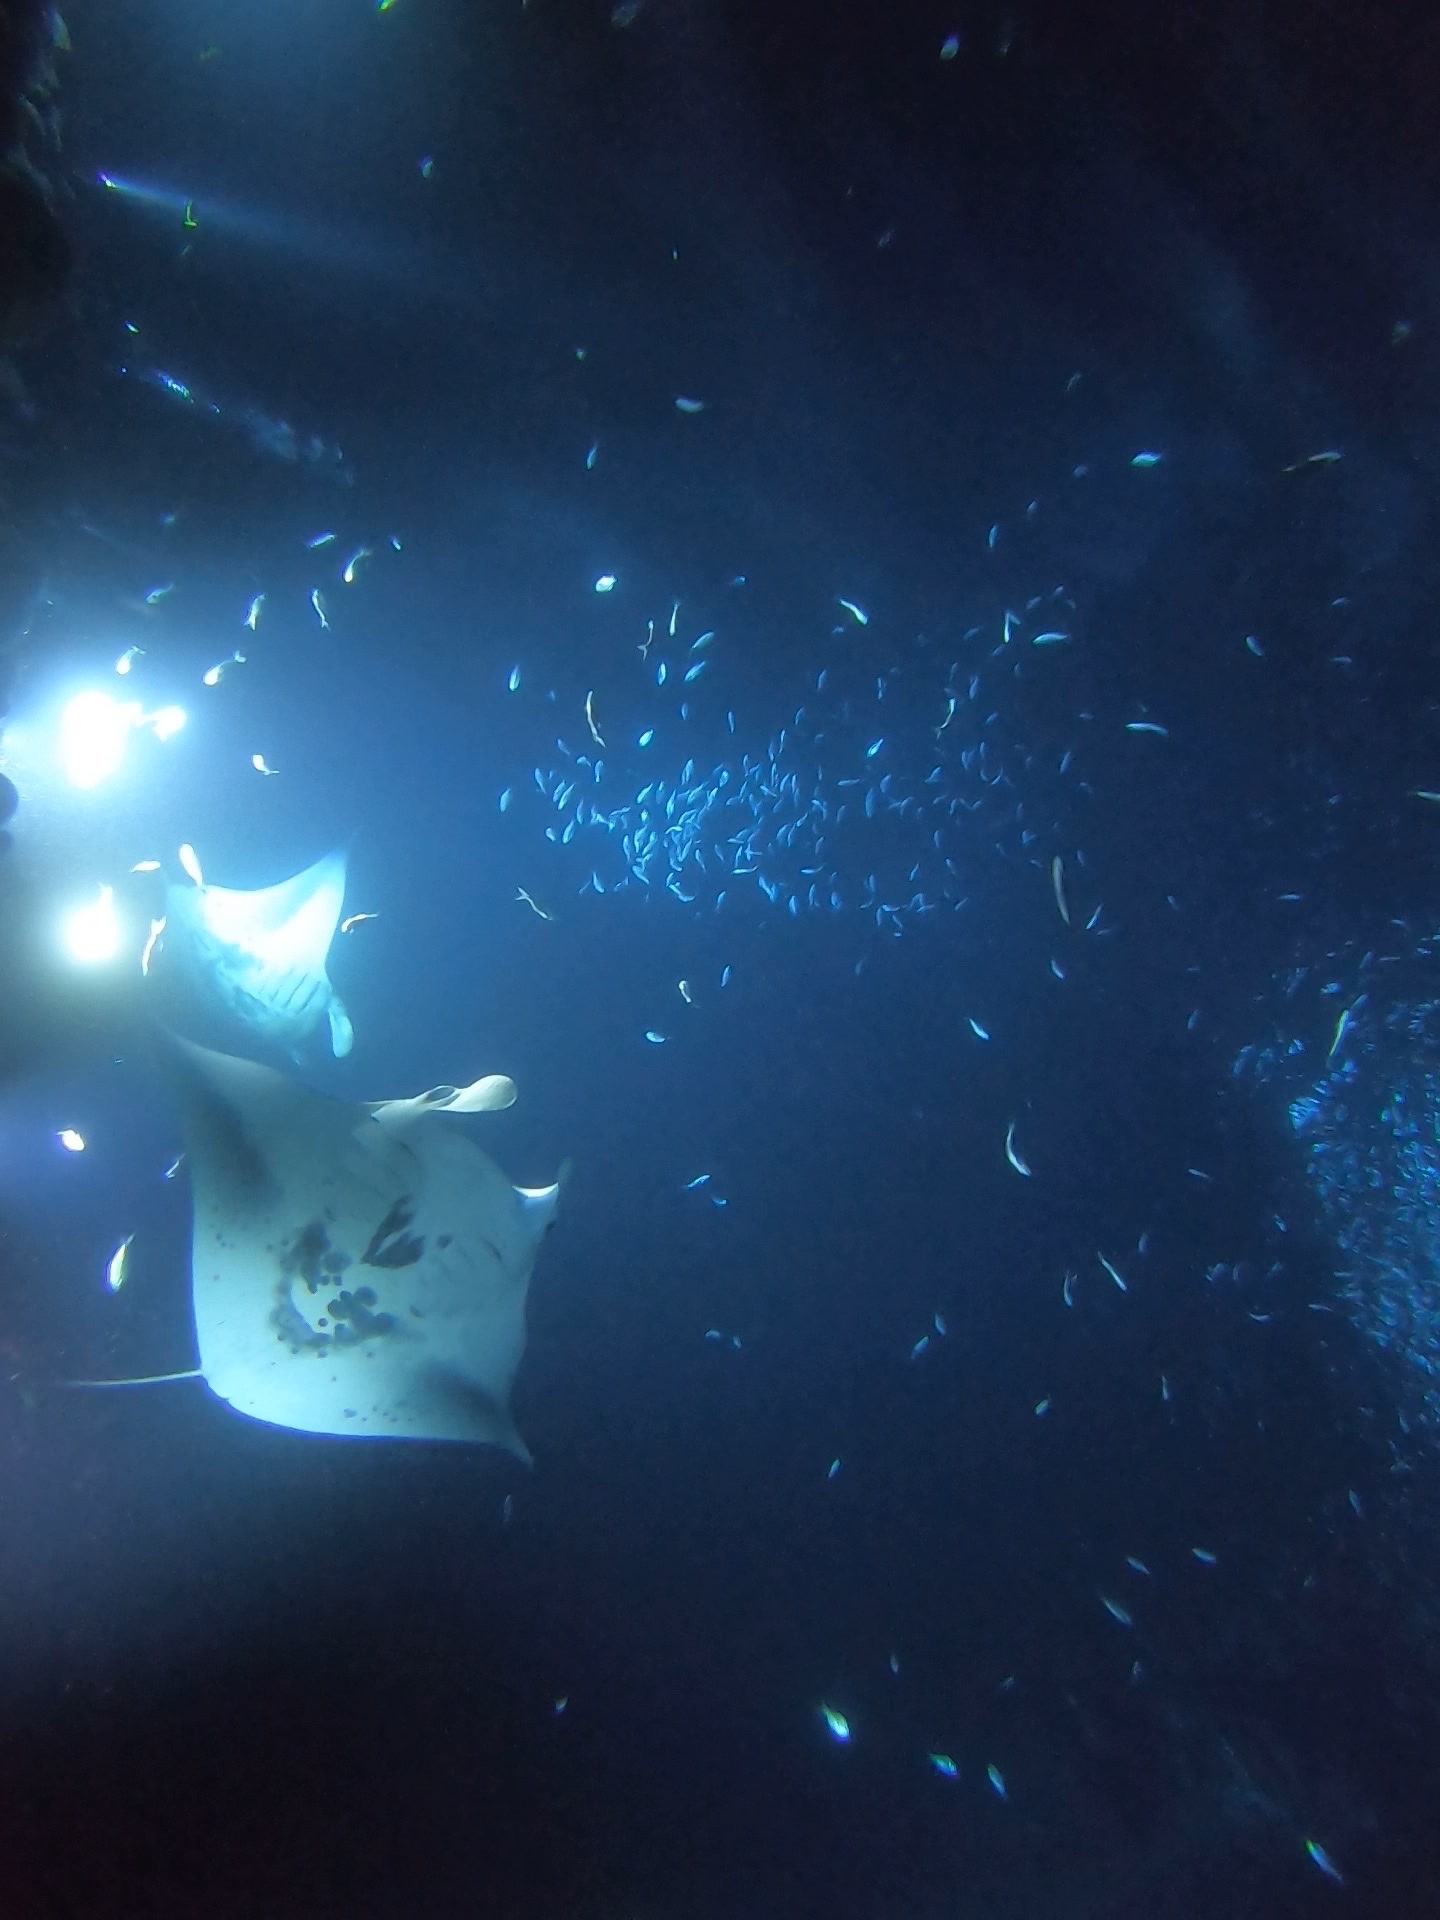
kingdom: Animalia
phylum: Chordata
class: Elasmobranchii
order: Myliobatiformes
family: Myliobatidae
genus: Mobula
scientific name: Mobula alfredi
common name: Reef manta ray
